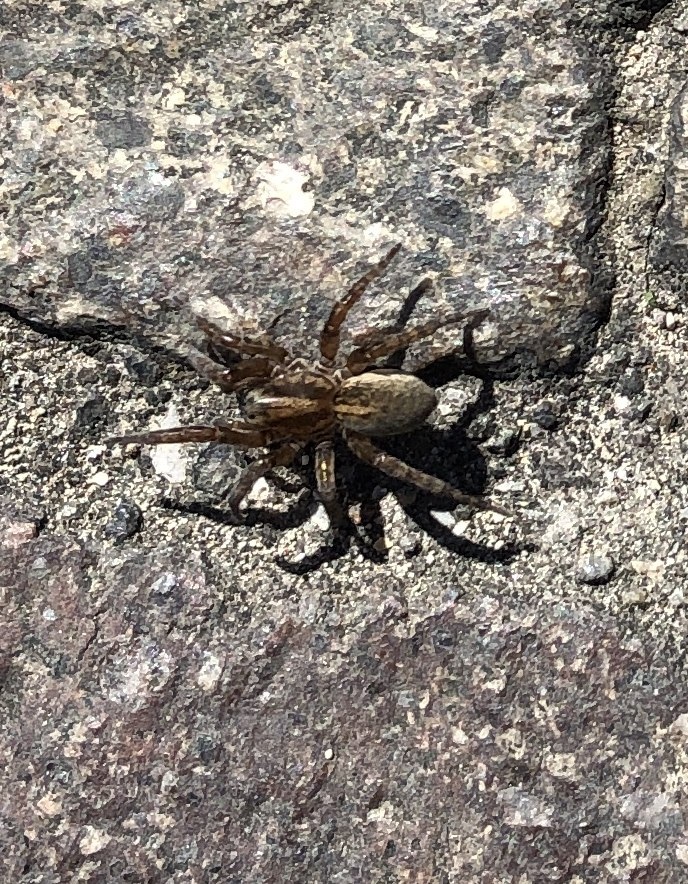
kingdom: Animalia
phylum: Arthropoda
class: Arachnida
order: Araneae
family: Lycosidae
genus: Arctosa
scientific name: Arctosa personata
